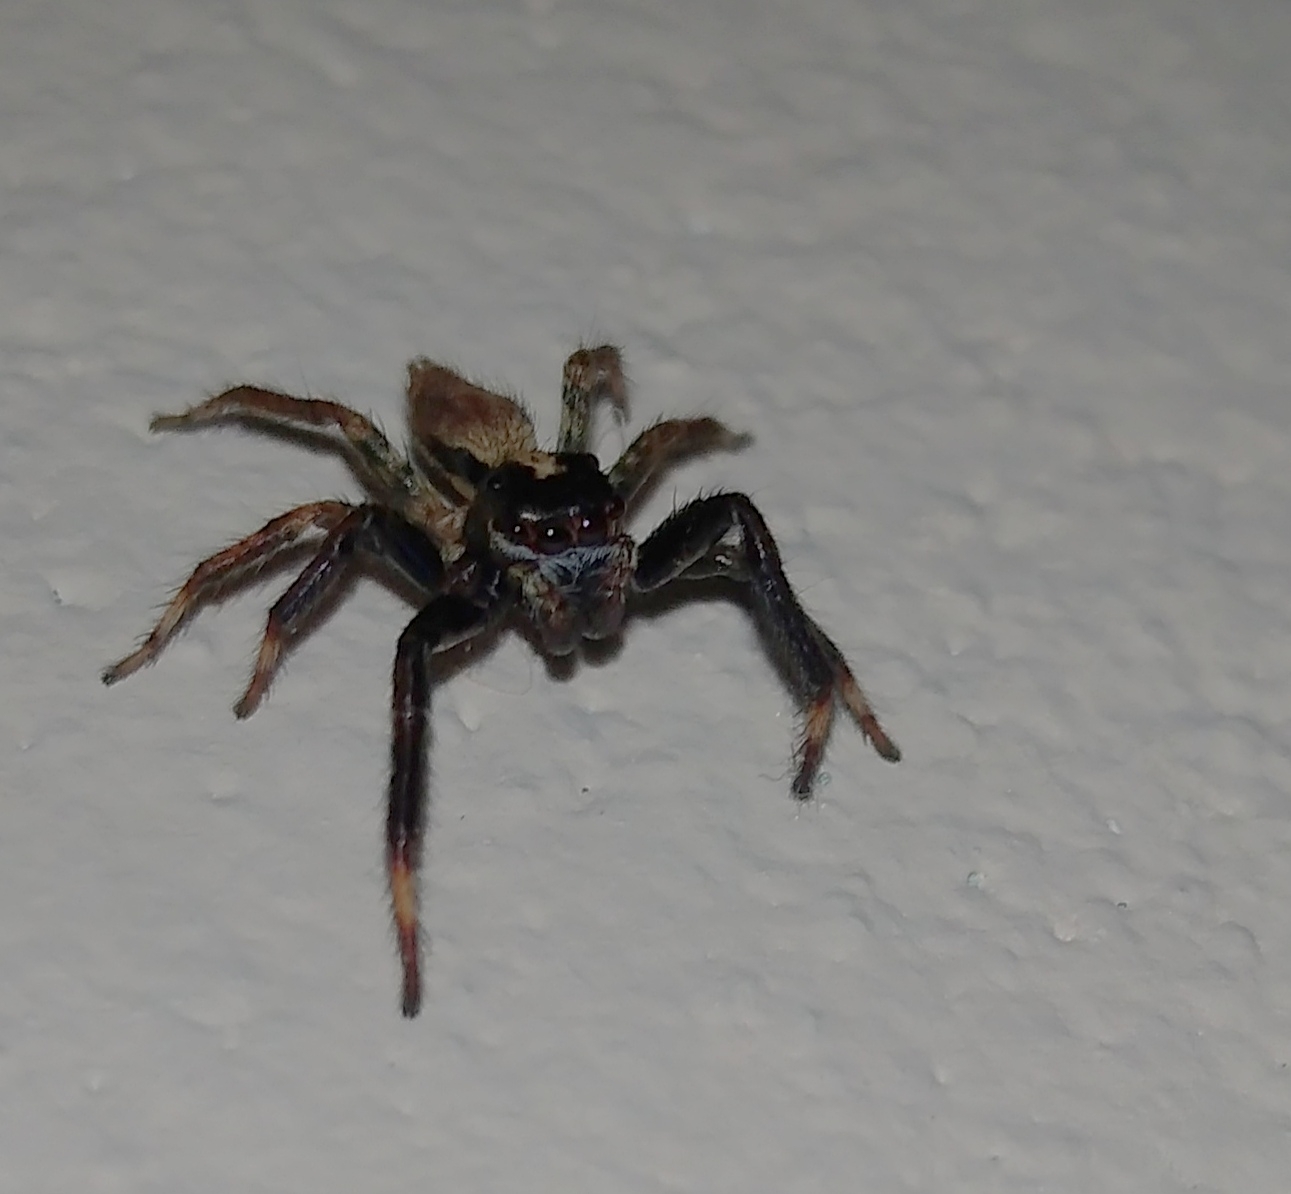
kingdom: Animalia
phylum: Arthropoda
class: Arachnida
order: Araneae
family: Salticidae
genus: Asaphobelis
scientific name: Asaphobelis physonychus
